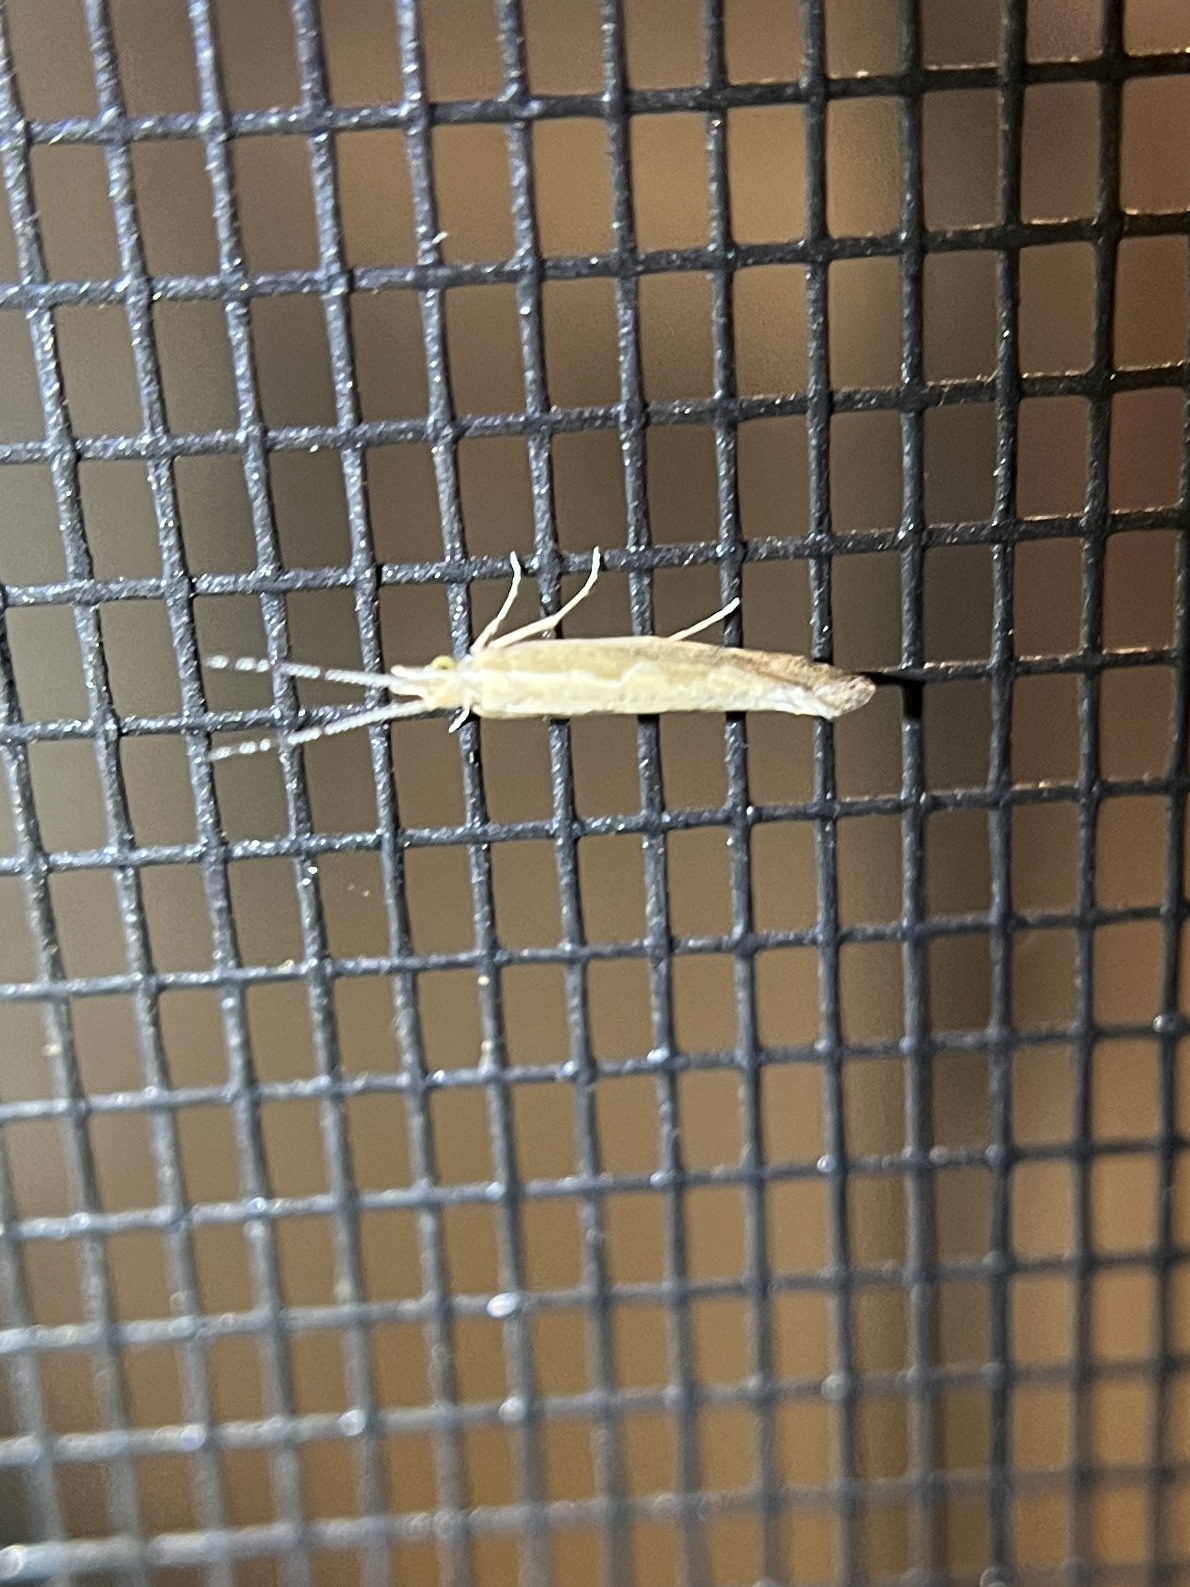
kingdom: Animalia
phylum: Arthropoda
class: Insecta
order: Lepidoptera
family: Plutellidae
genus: Plutella
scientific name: Plutella xylostella
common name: Diamond-back moth
